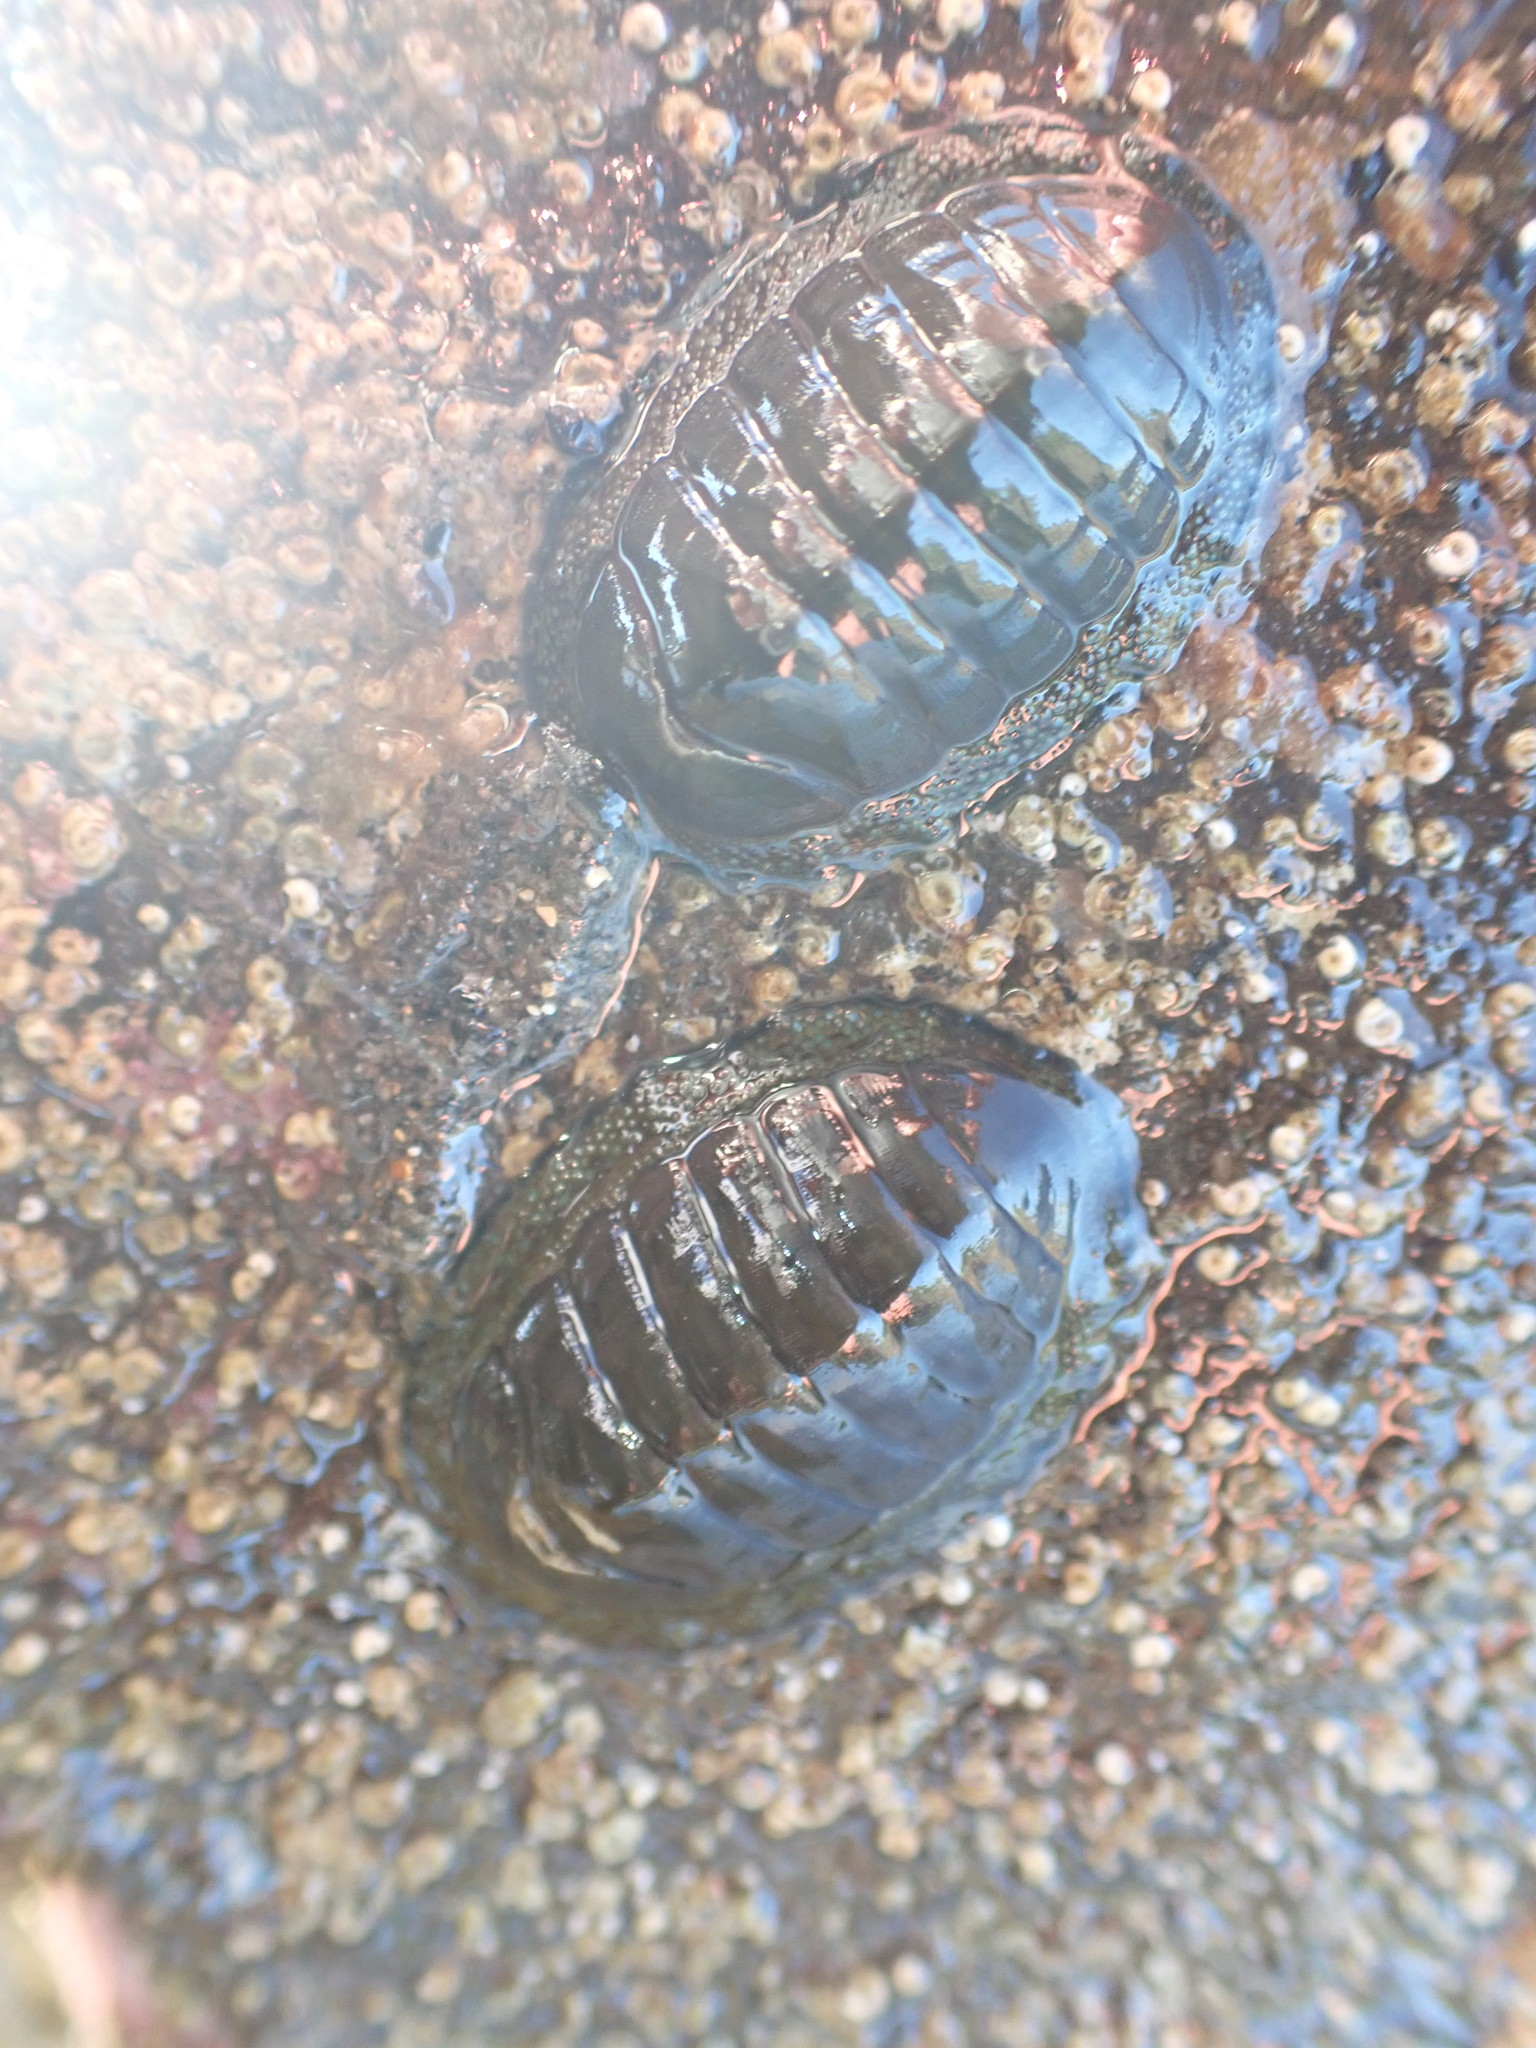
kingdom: Animalia
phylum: Mollusca
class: Polyplacophora
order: Chitonida
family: Chitonidae
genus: Chiton
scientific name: Chiton glaucus
